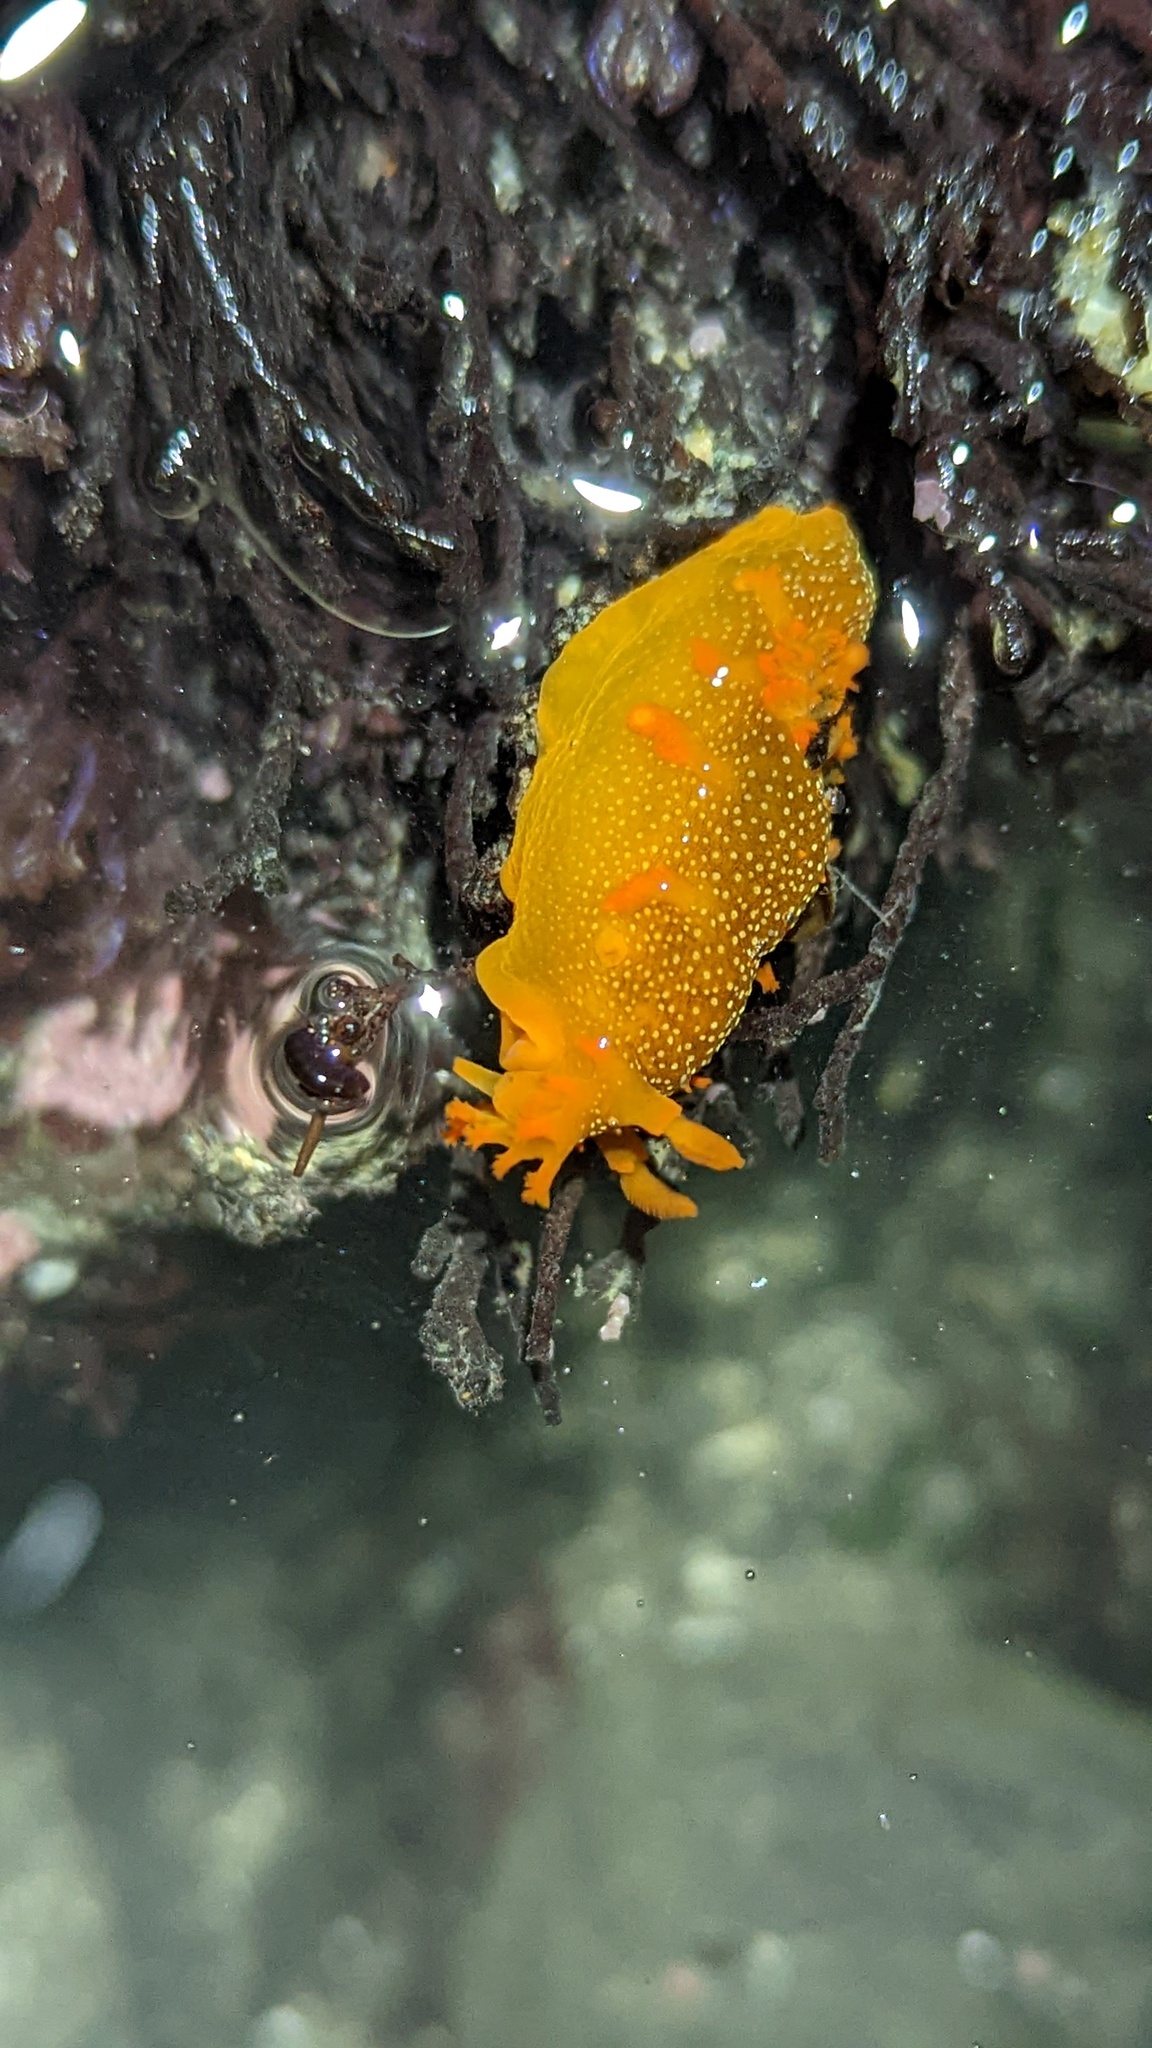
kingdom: Animalia
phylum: Mollusca
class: Gastropoda
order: Nudibranchia
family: Polyceridae
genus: Triopha
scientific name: Triopha maculata
